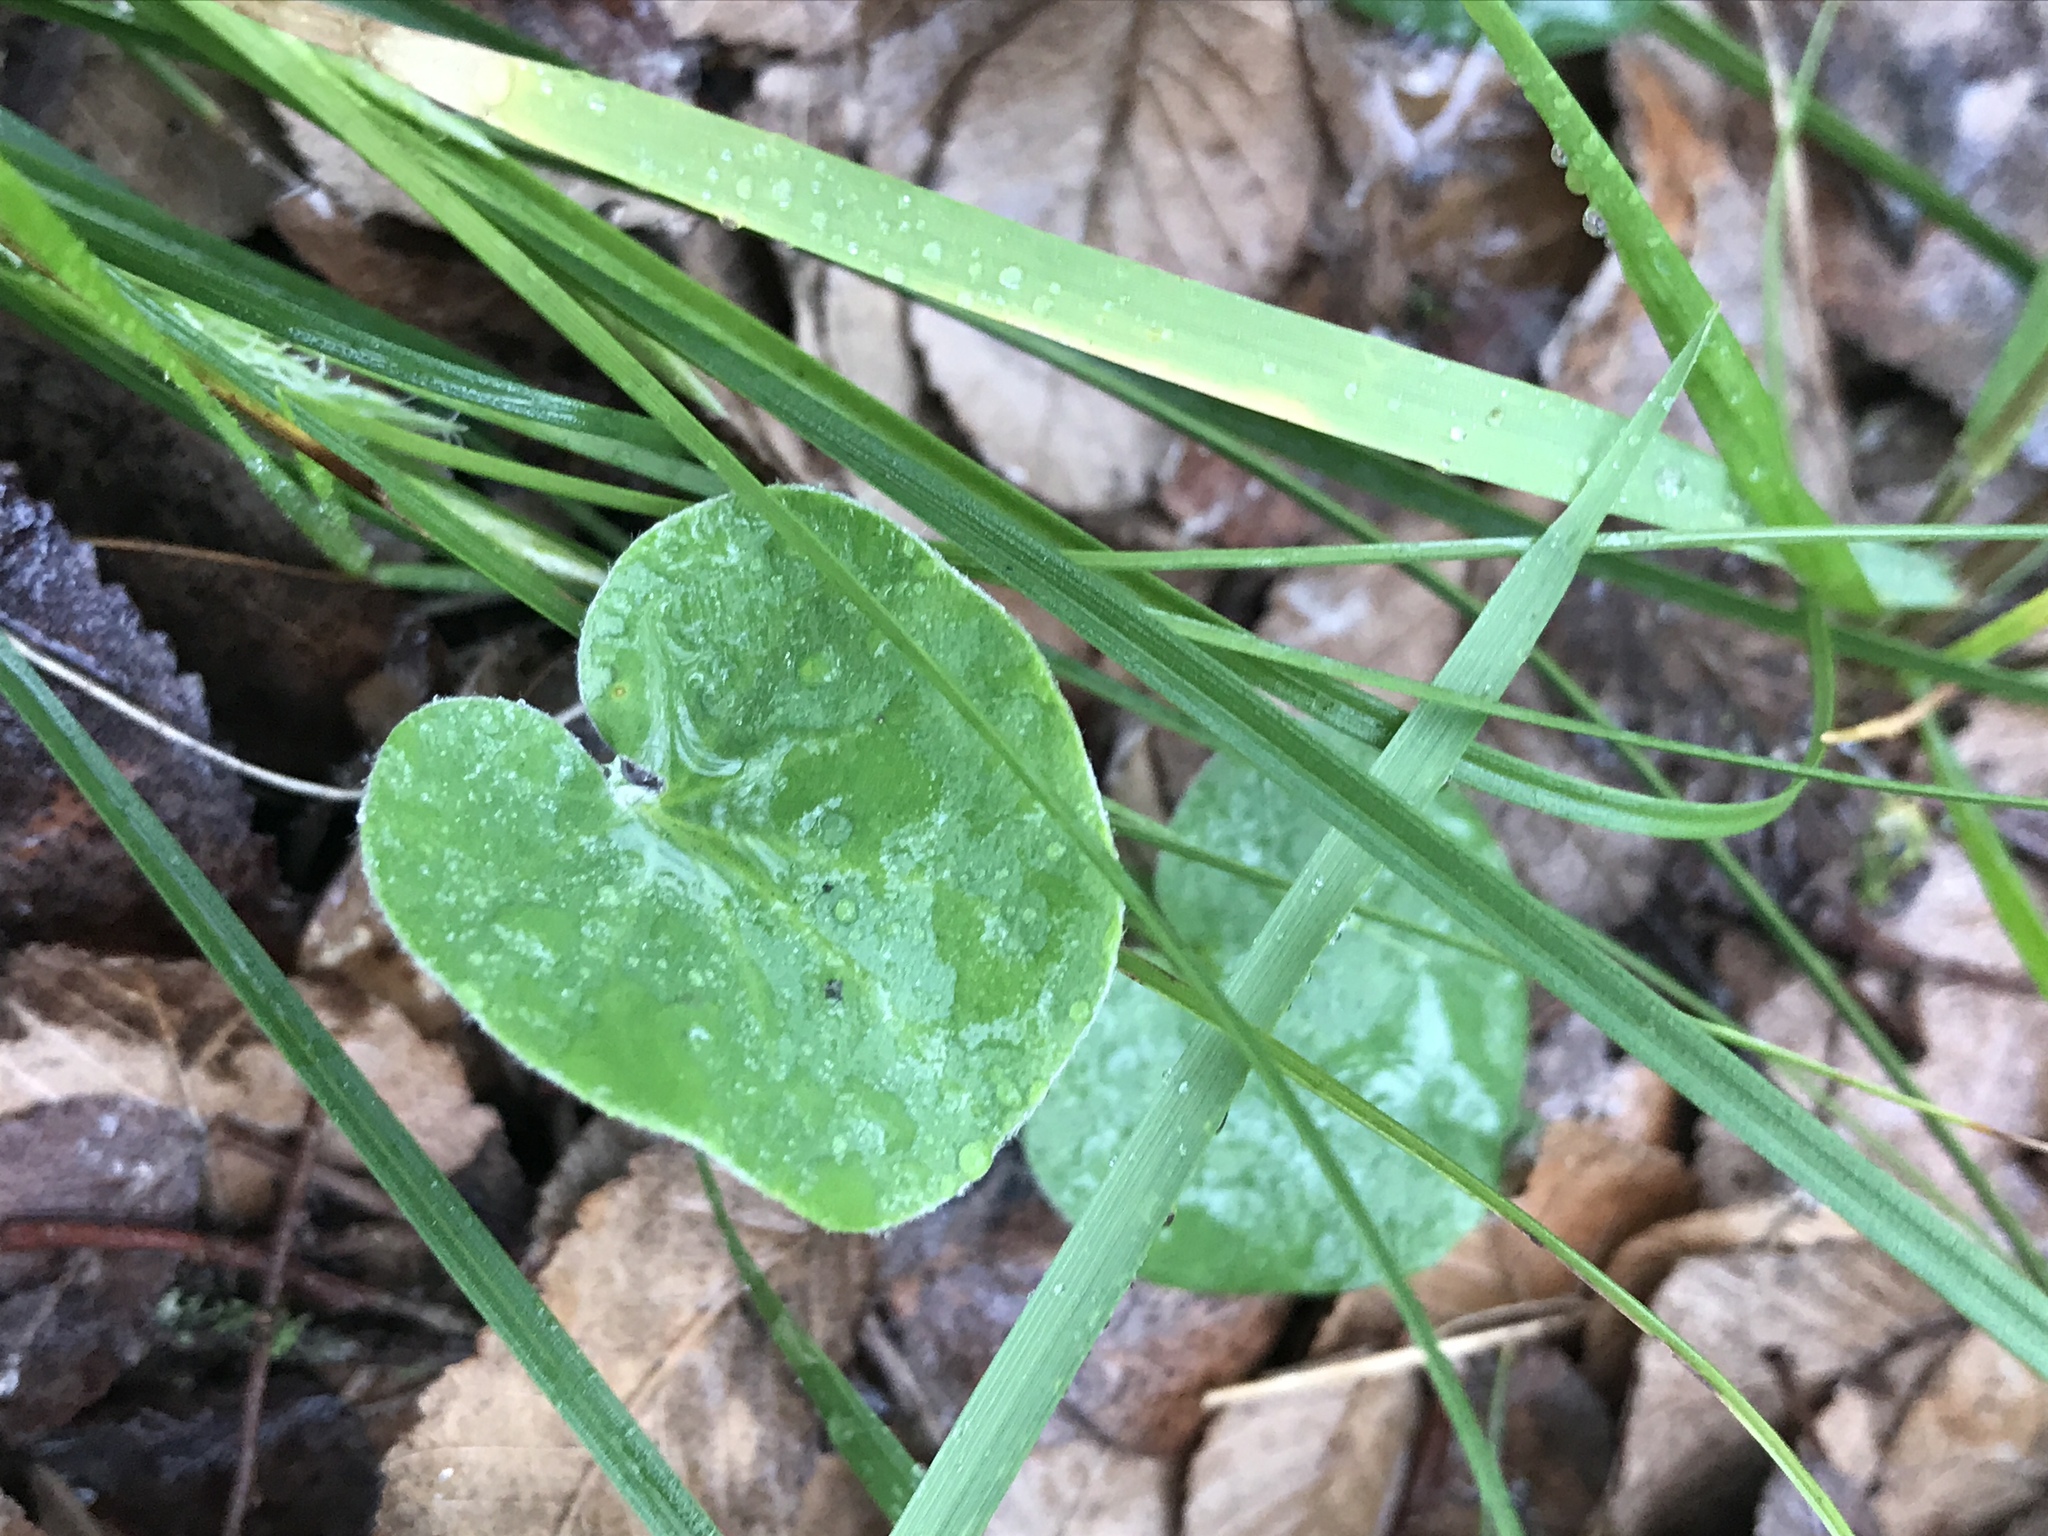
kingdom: Plantae
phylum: Tracheophyta
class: Magnoliopsida
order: Solanales
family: Convolvulaceae
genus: Dichondra
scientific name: Dichondra carolinensis
